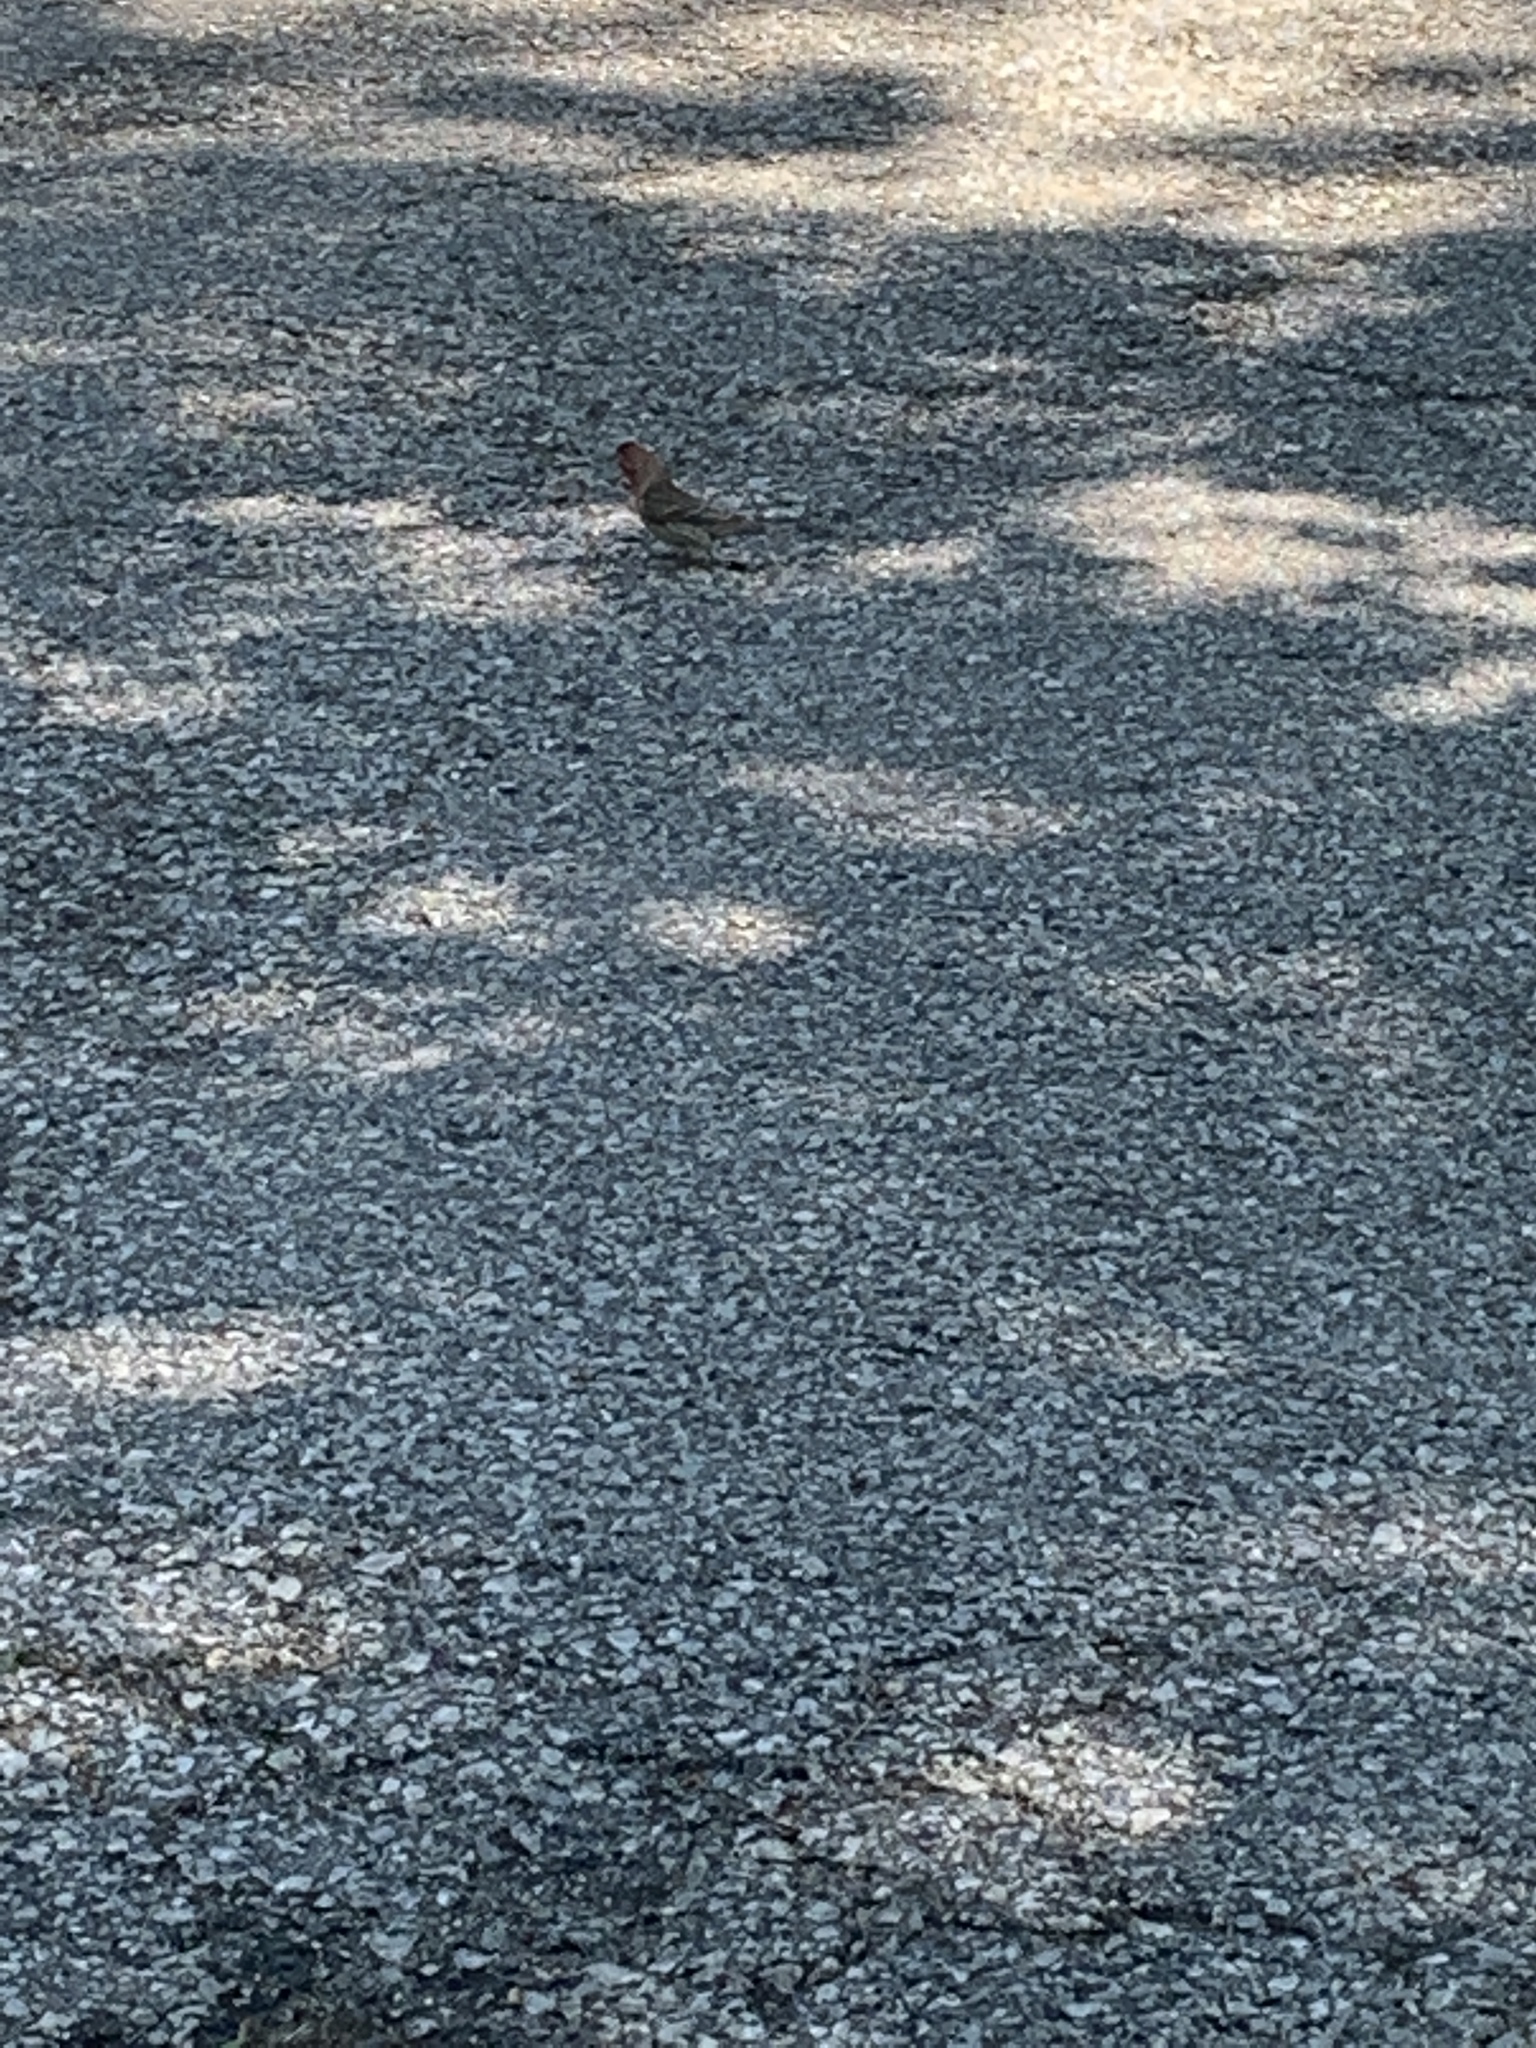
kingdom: Animalia
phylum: Chordata
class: Aves
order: Passeriformes
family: Fringillidae
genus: Haemorhous
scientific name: Haemorhous mexicanus
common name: House finch
